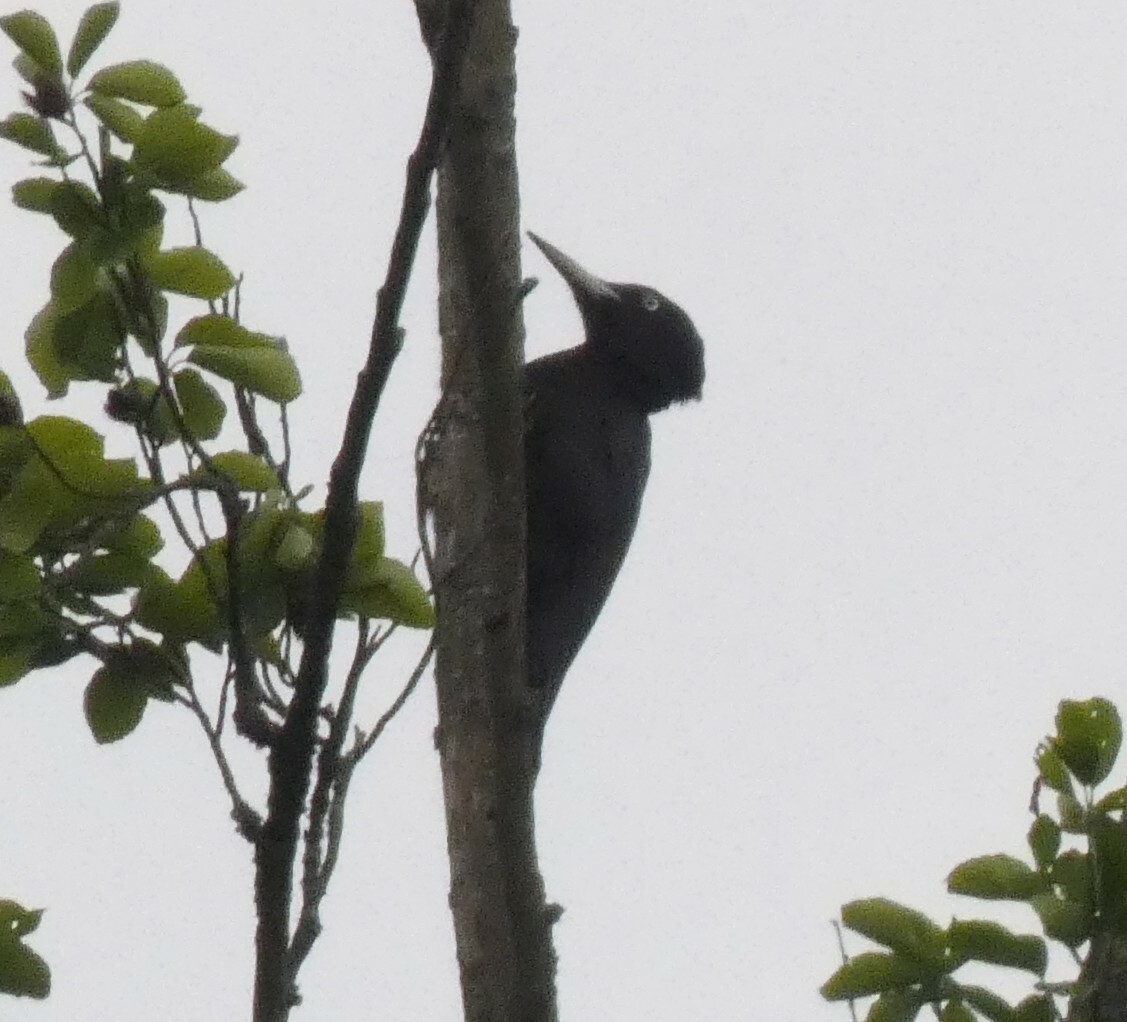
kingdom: Animalia
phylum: Chordata
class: Aves
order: Piciformes
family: Picidae
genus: Dryocopus
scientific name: Dryocopus martius
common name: Black woodpecker
